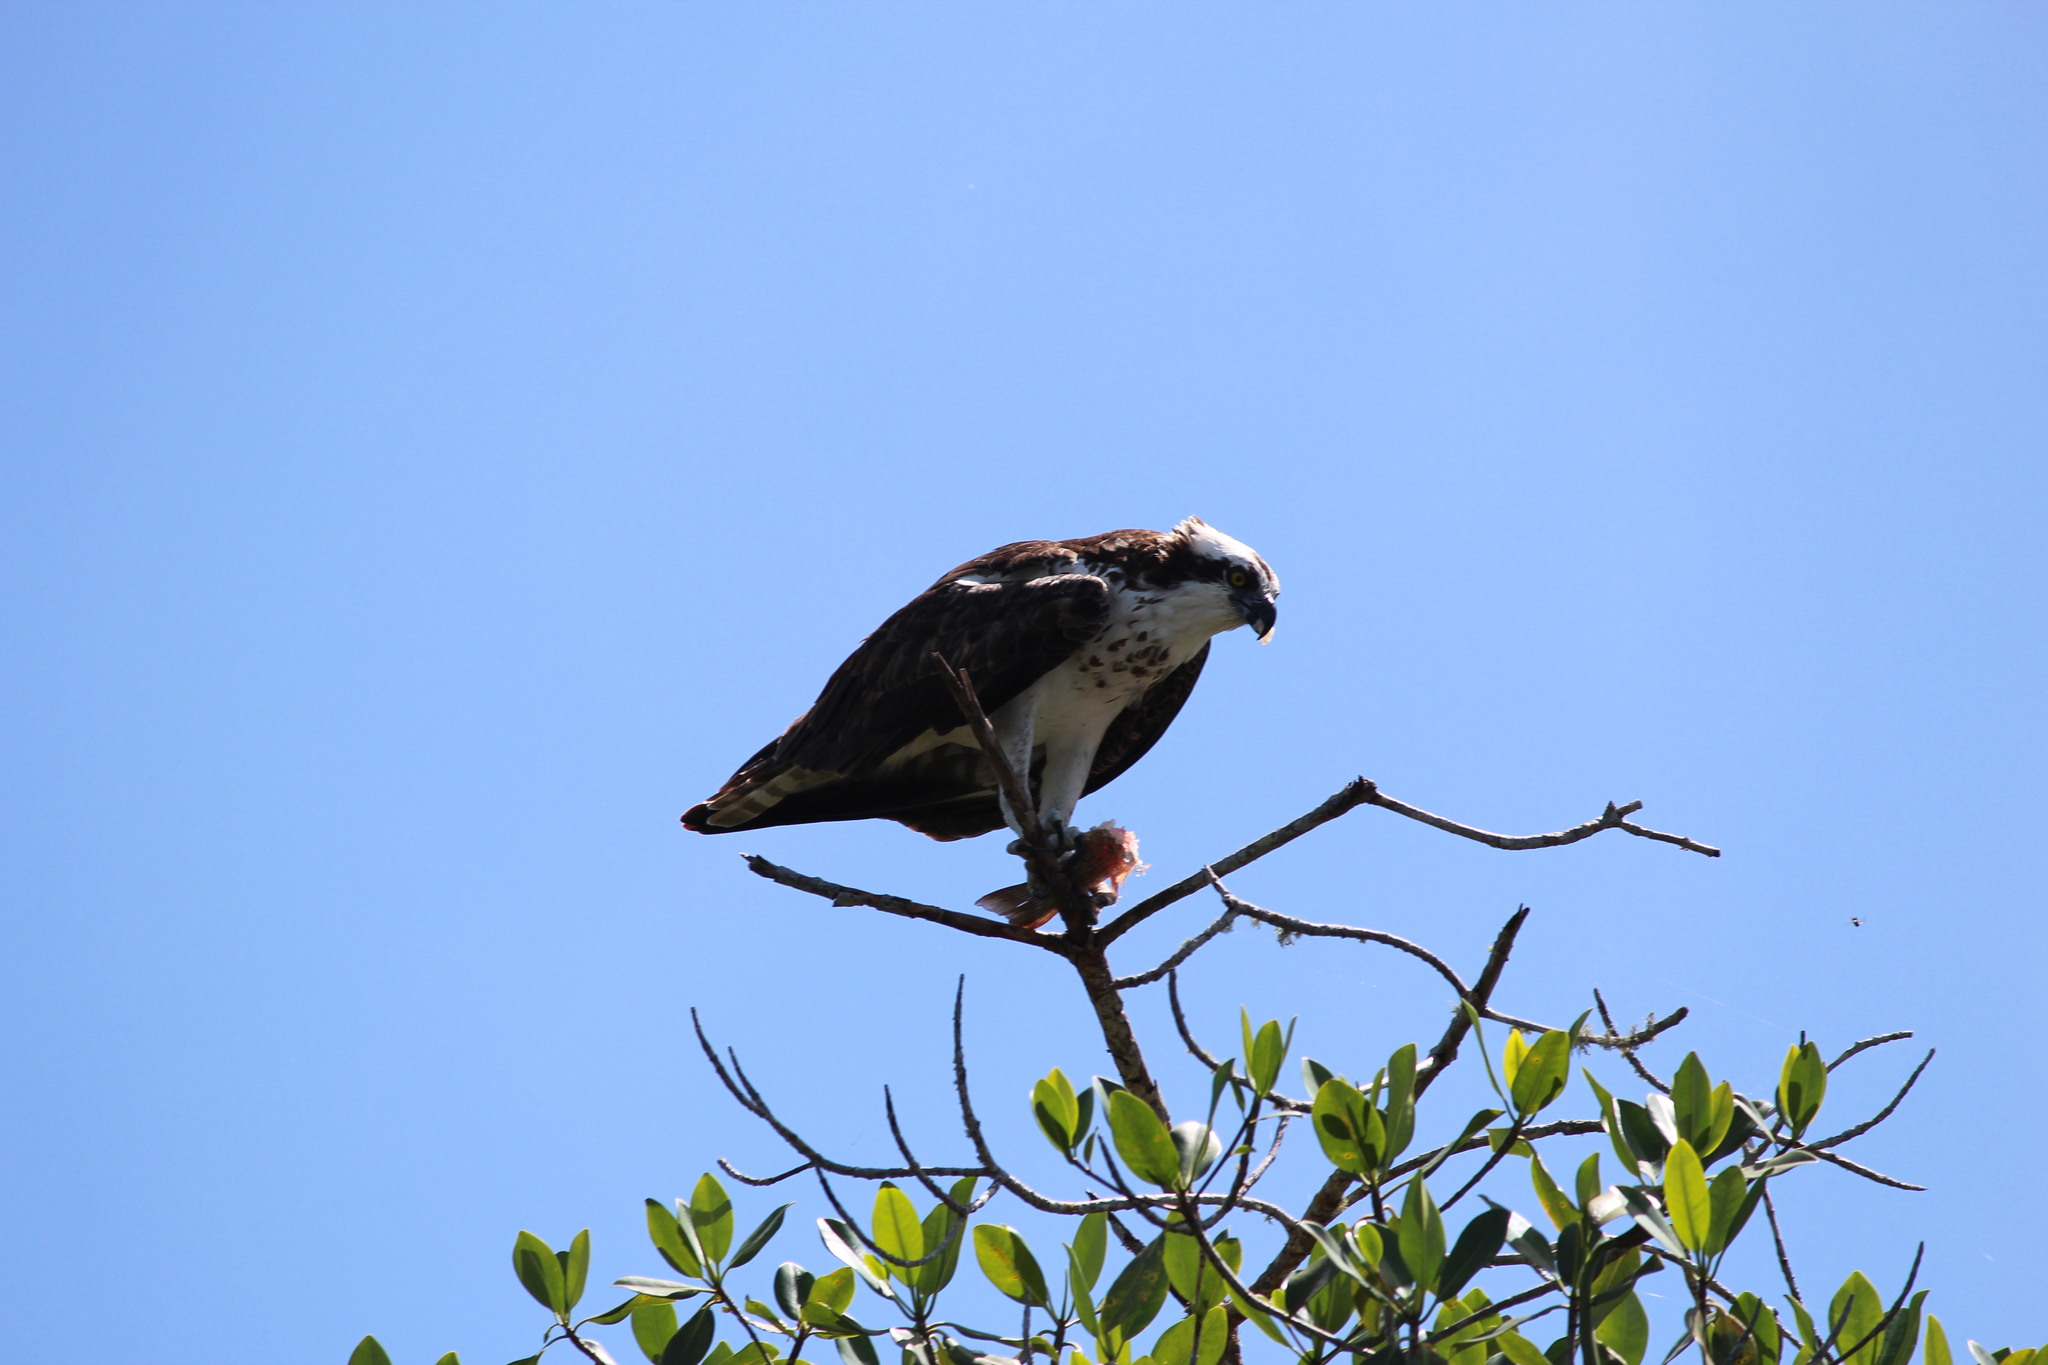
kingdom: Animalia
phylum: Chordata
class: Aves
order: Accipitriformes
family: Pandionidae
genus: Pandion
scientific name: Pandion haliaetus
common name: Osprey
